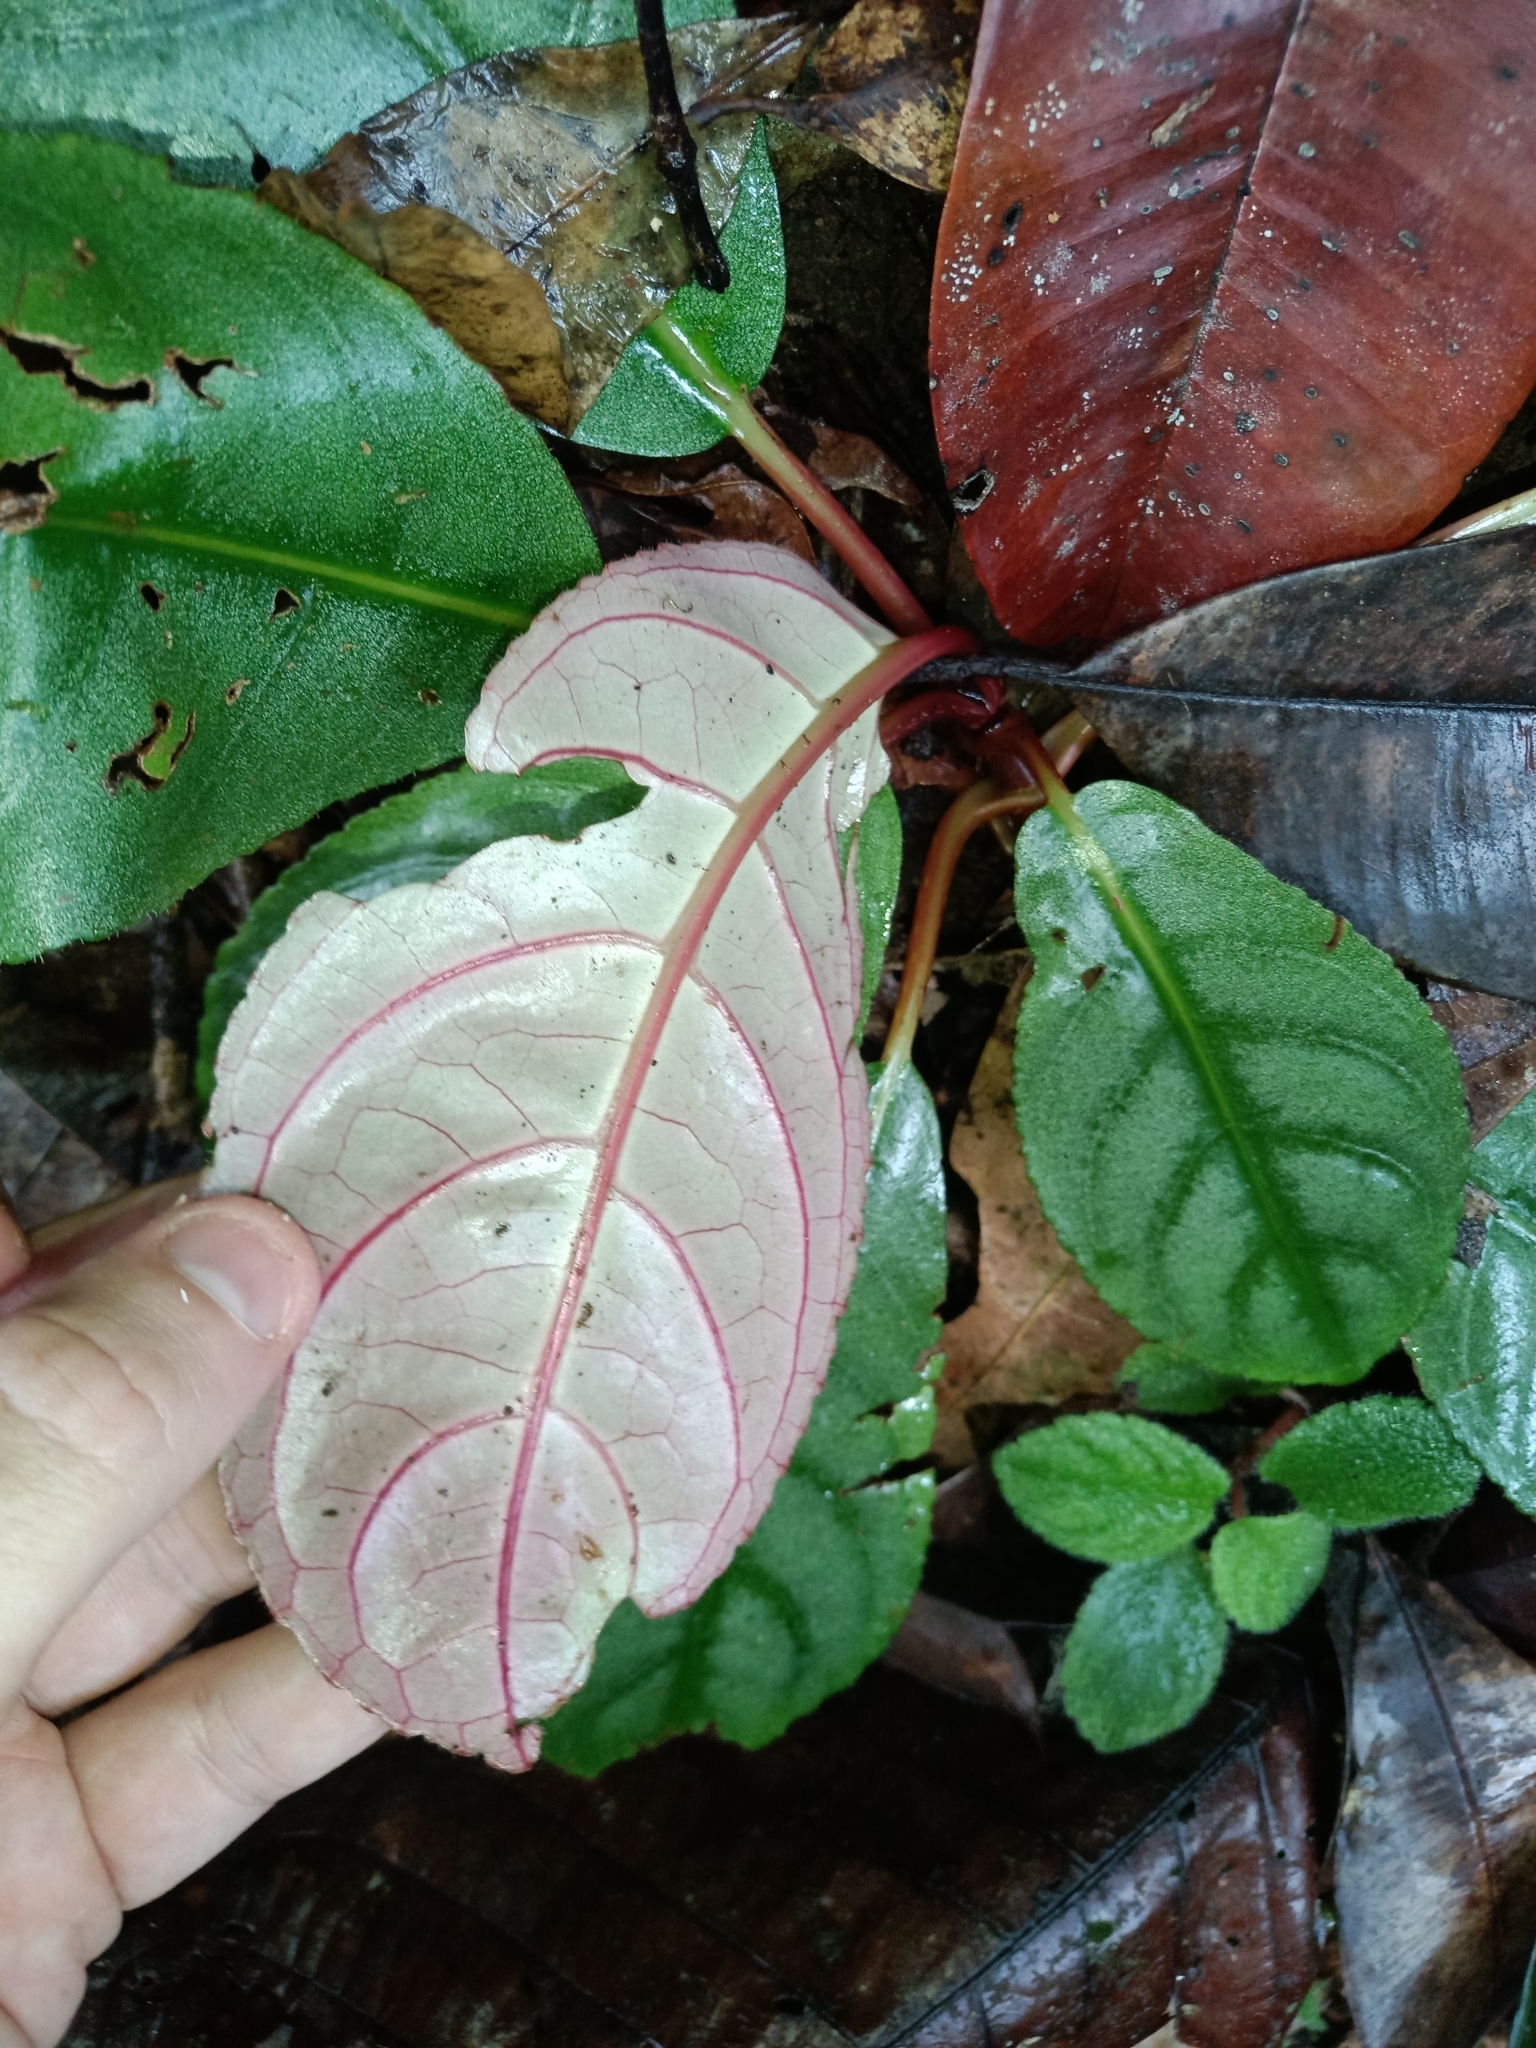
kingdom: Plantae
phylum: Tracheophyta
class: Magnoliopsida
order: Lamiales
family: Gesneriaceae
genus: Centrosolenia
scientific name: Centrosolenia densa
